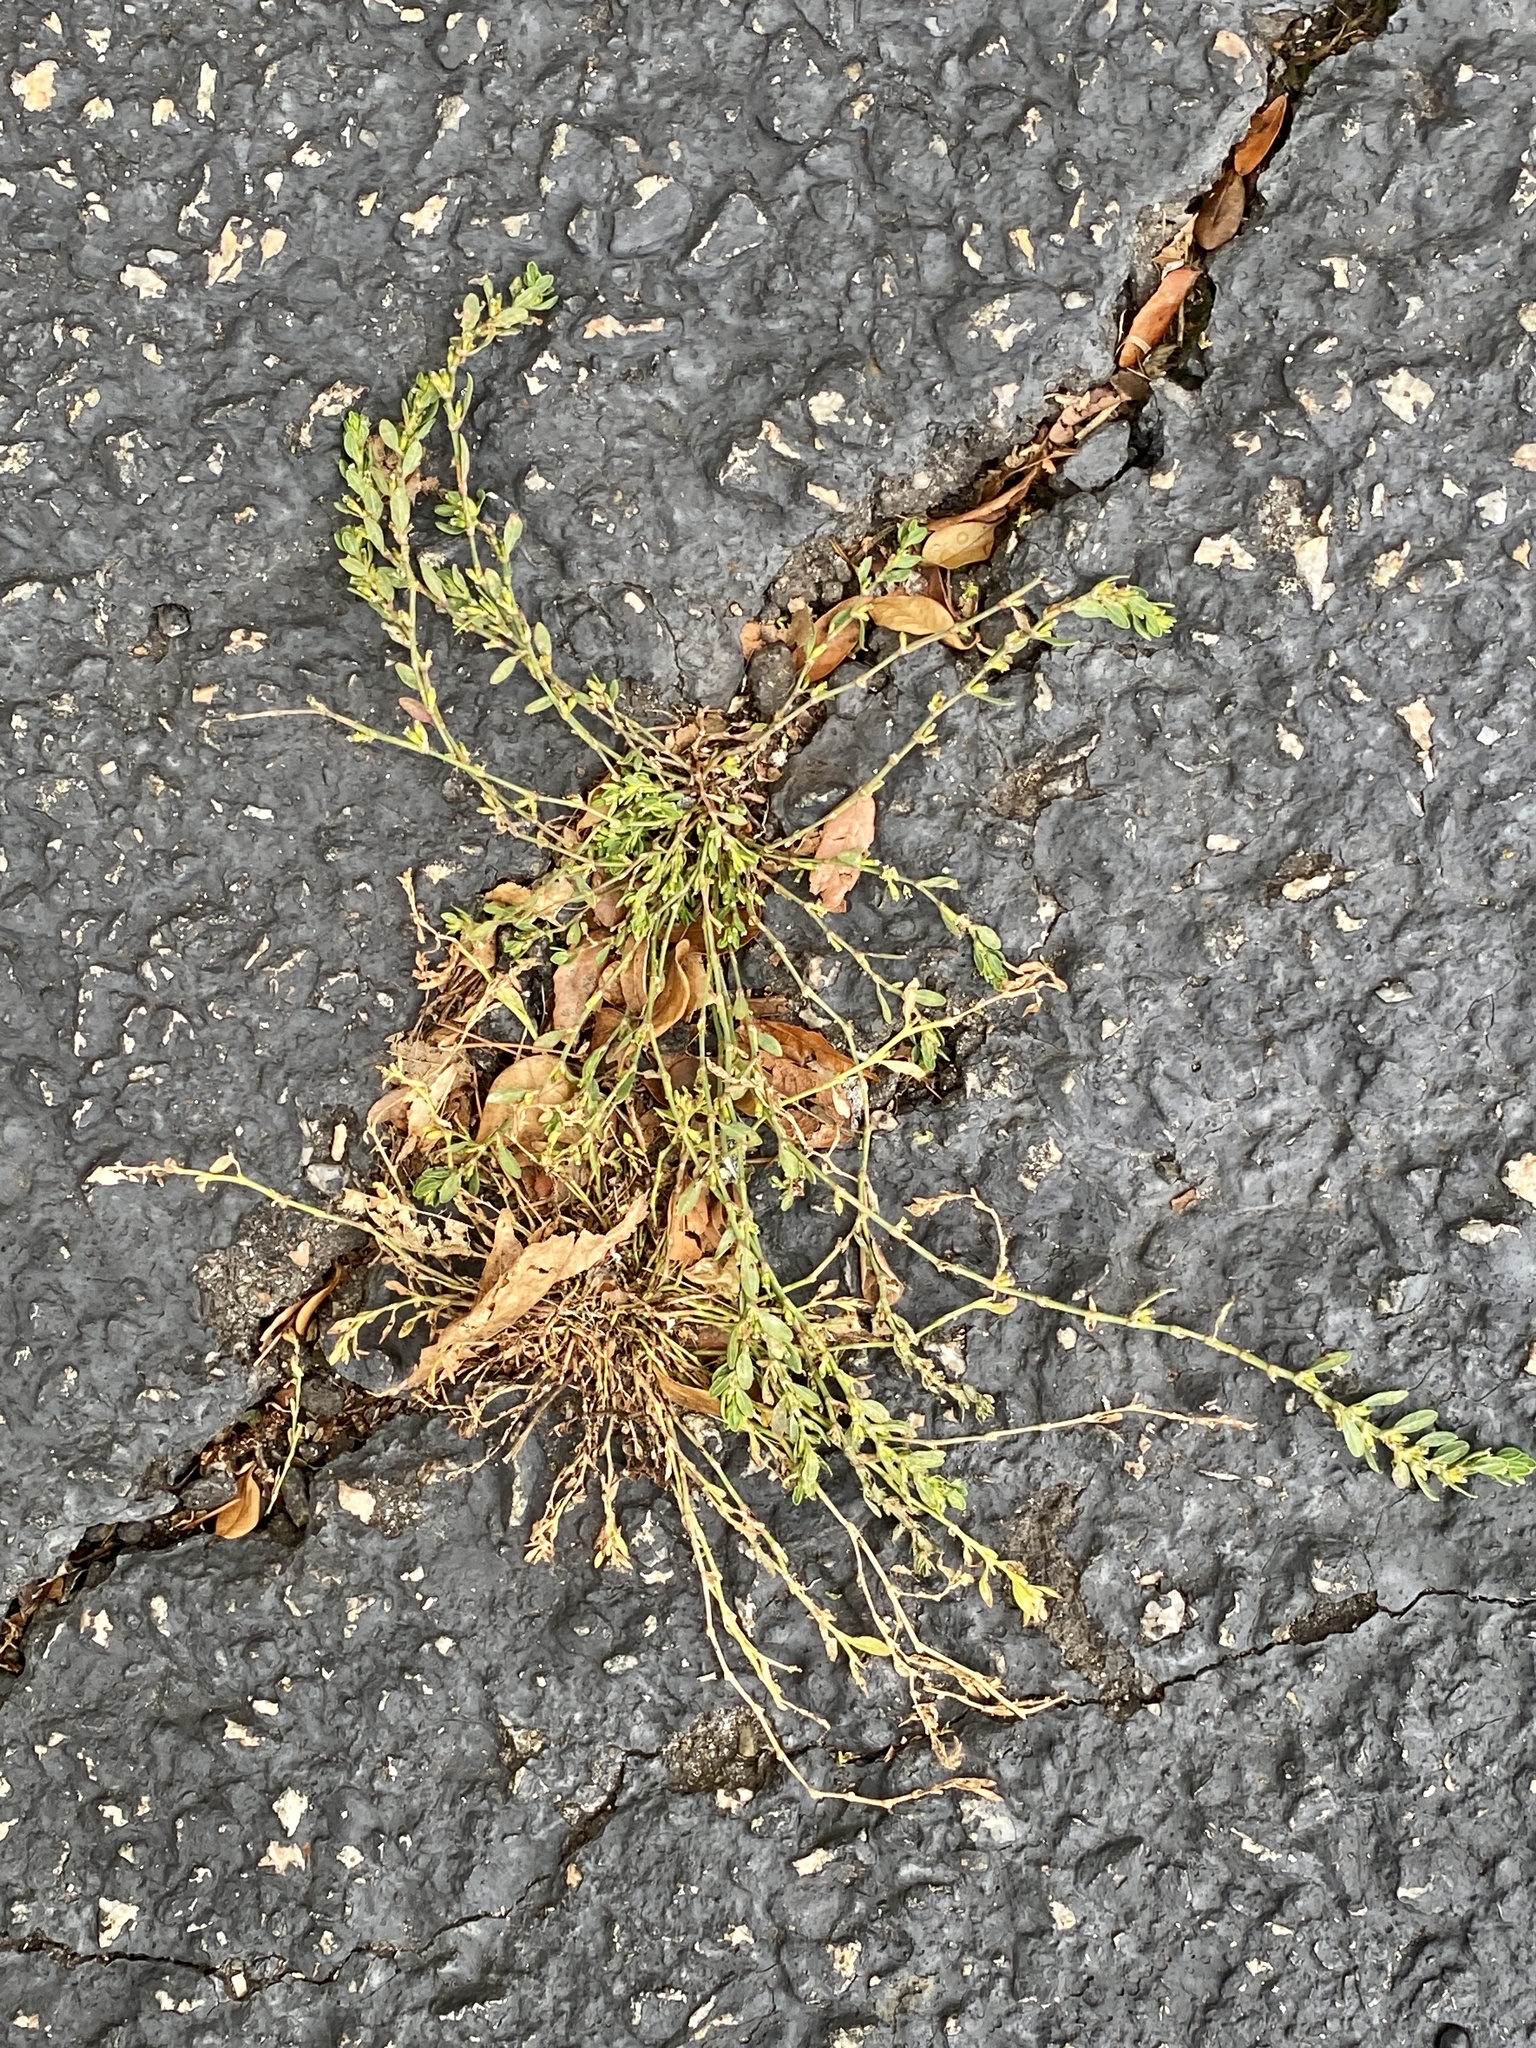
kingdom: Plantae
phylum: Tracheophyta
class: Magnoliopsida
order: Caryophyllales
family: Polygonaceae
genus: Polygonum
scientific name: Polygonum aviculare
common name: Prostrate knotweed
